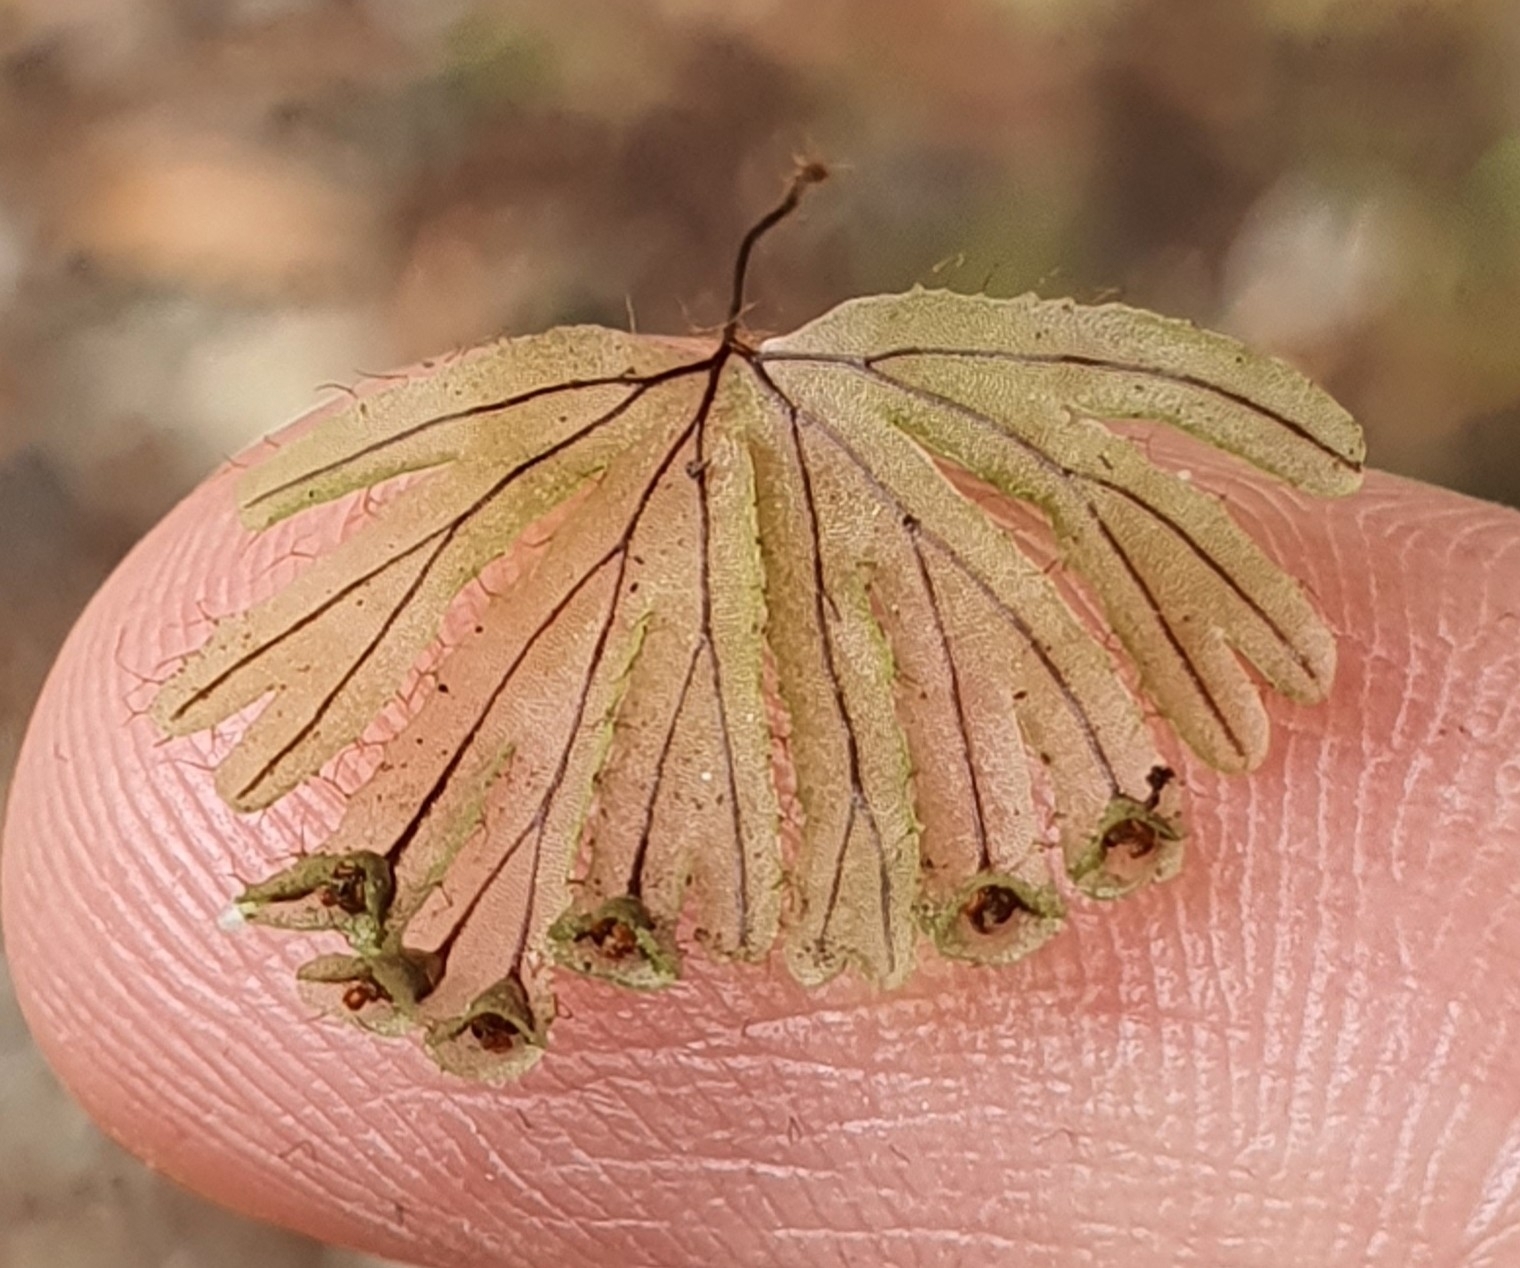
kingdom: Plantae
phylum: Tracheophyta
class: Polypodiopsida
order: Hymenophyllales
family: Hymenophyllaceae
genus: Hymenophyllum
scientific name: Hymenophyllum lyallii
